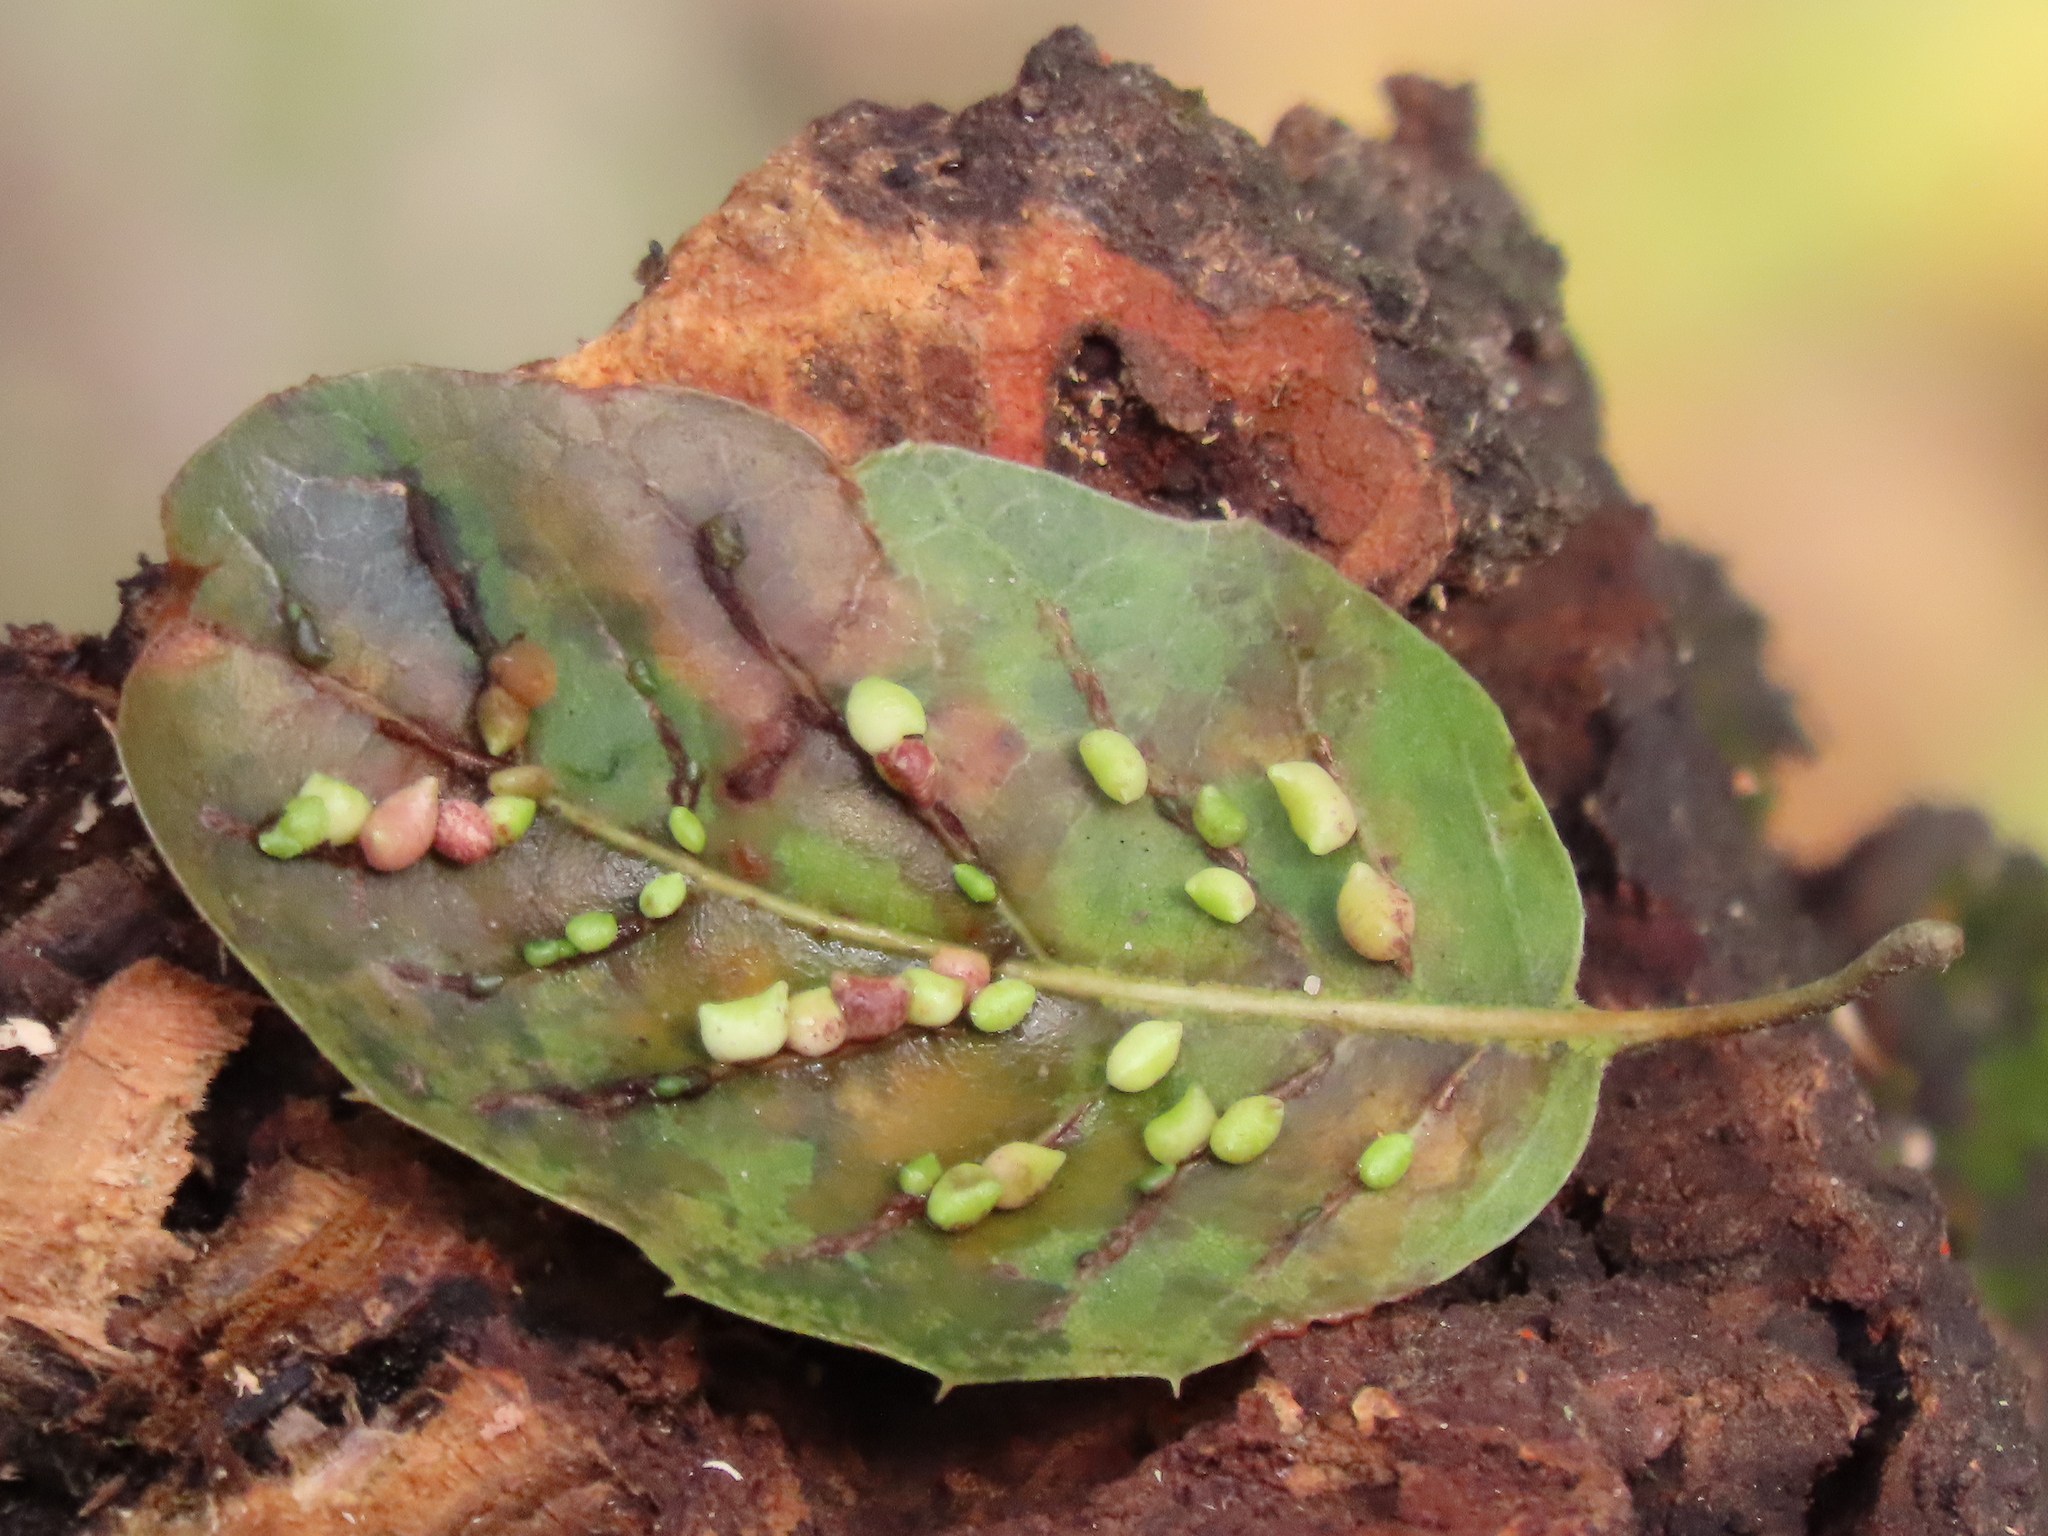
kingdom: Animalia
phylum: Arthropoda
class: Insecta
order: Hymenoptera
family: Cynipidae
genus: Dryocosmus
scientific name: Dryocosmus
